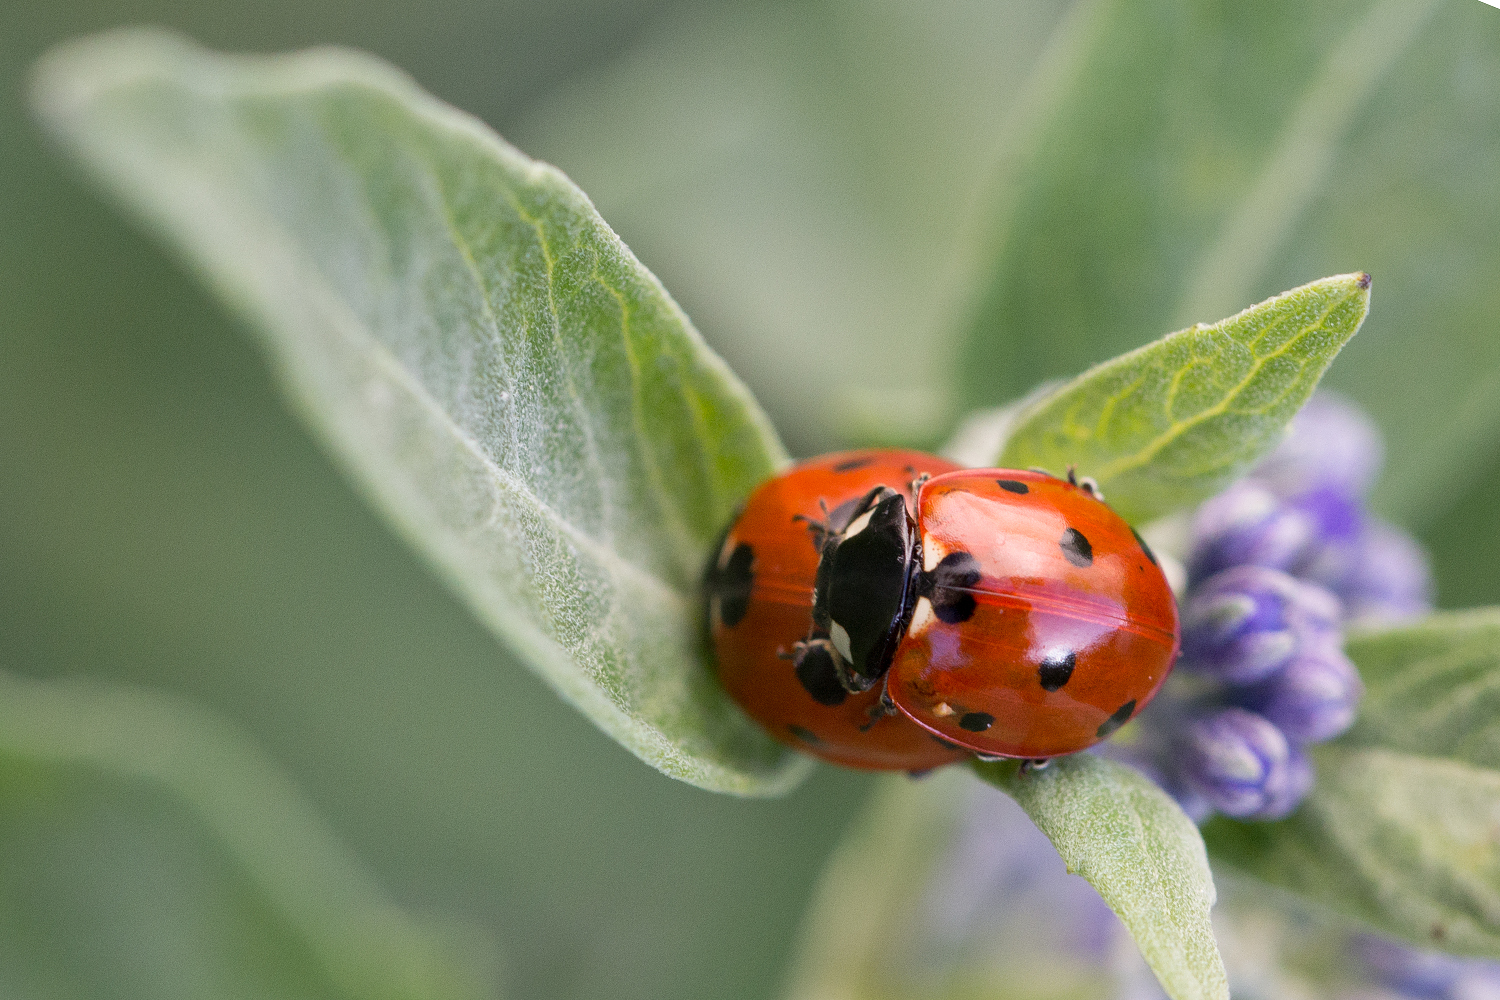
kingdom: Animalia
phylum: Arthropoda
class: Insecta
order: Coleoptera
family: Coccinellidae
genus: Coccinella
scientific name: Coccinella septempunctata
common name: Sevenspotted lady beetle
